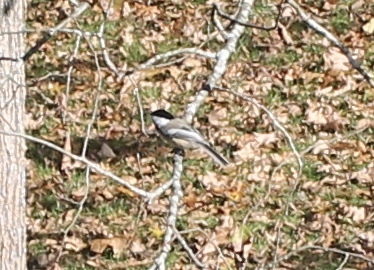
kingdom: Animalia
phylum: Chordata
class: Aves
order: Passeriformes
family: Paridae
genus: Poecile
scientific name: Poecile atricapillus
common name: Black-capped chickadee
